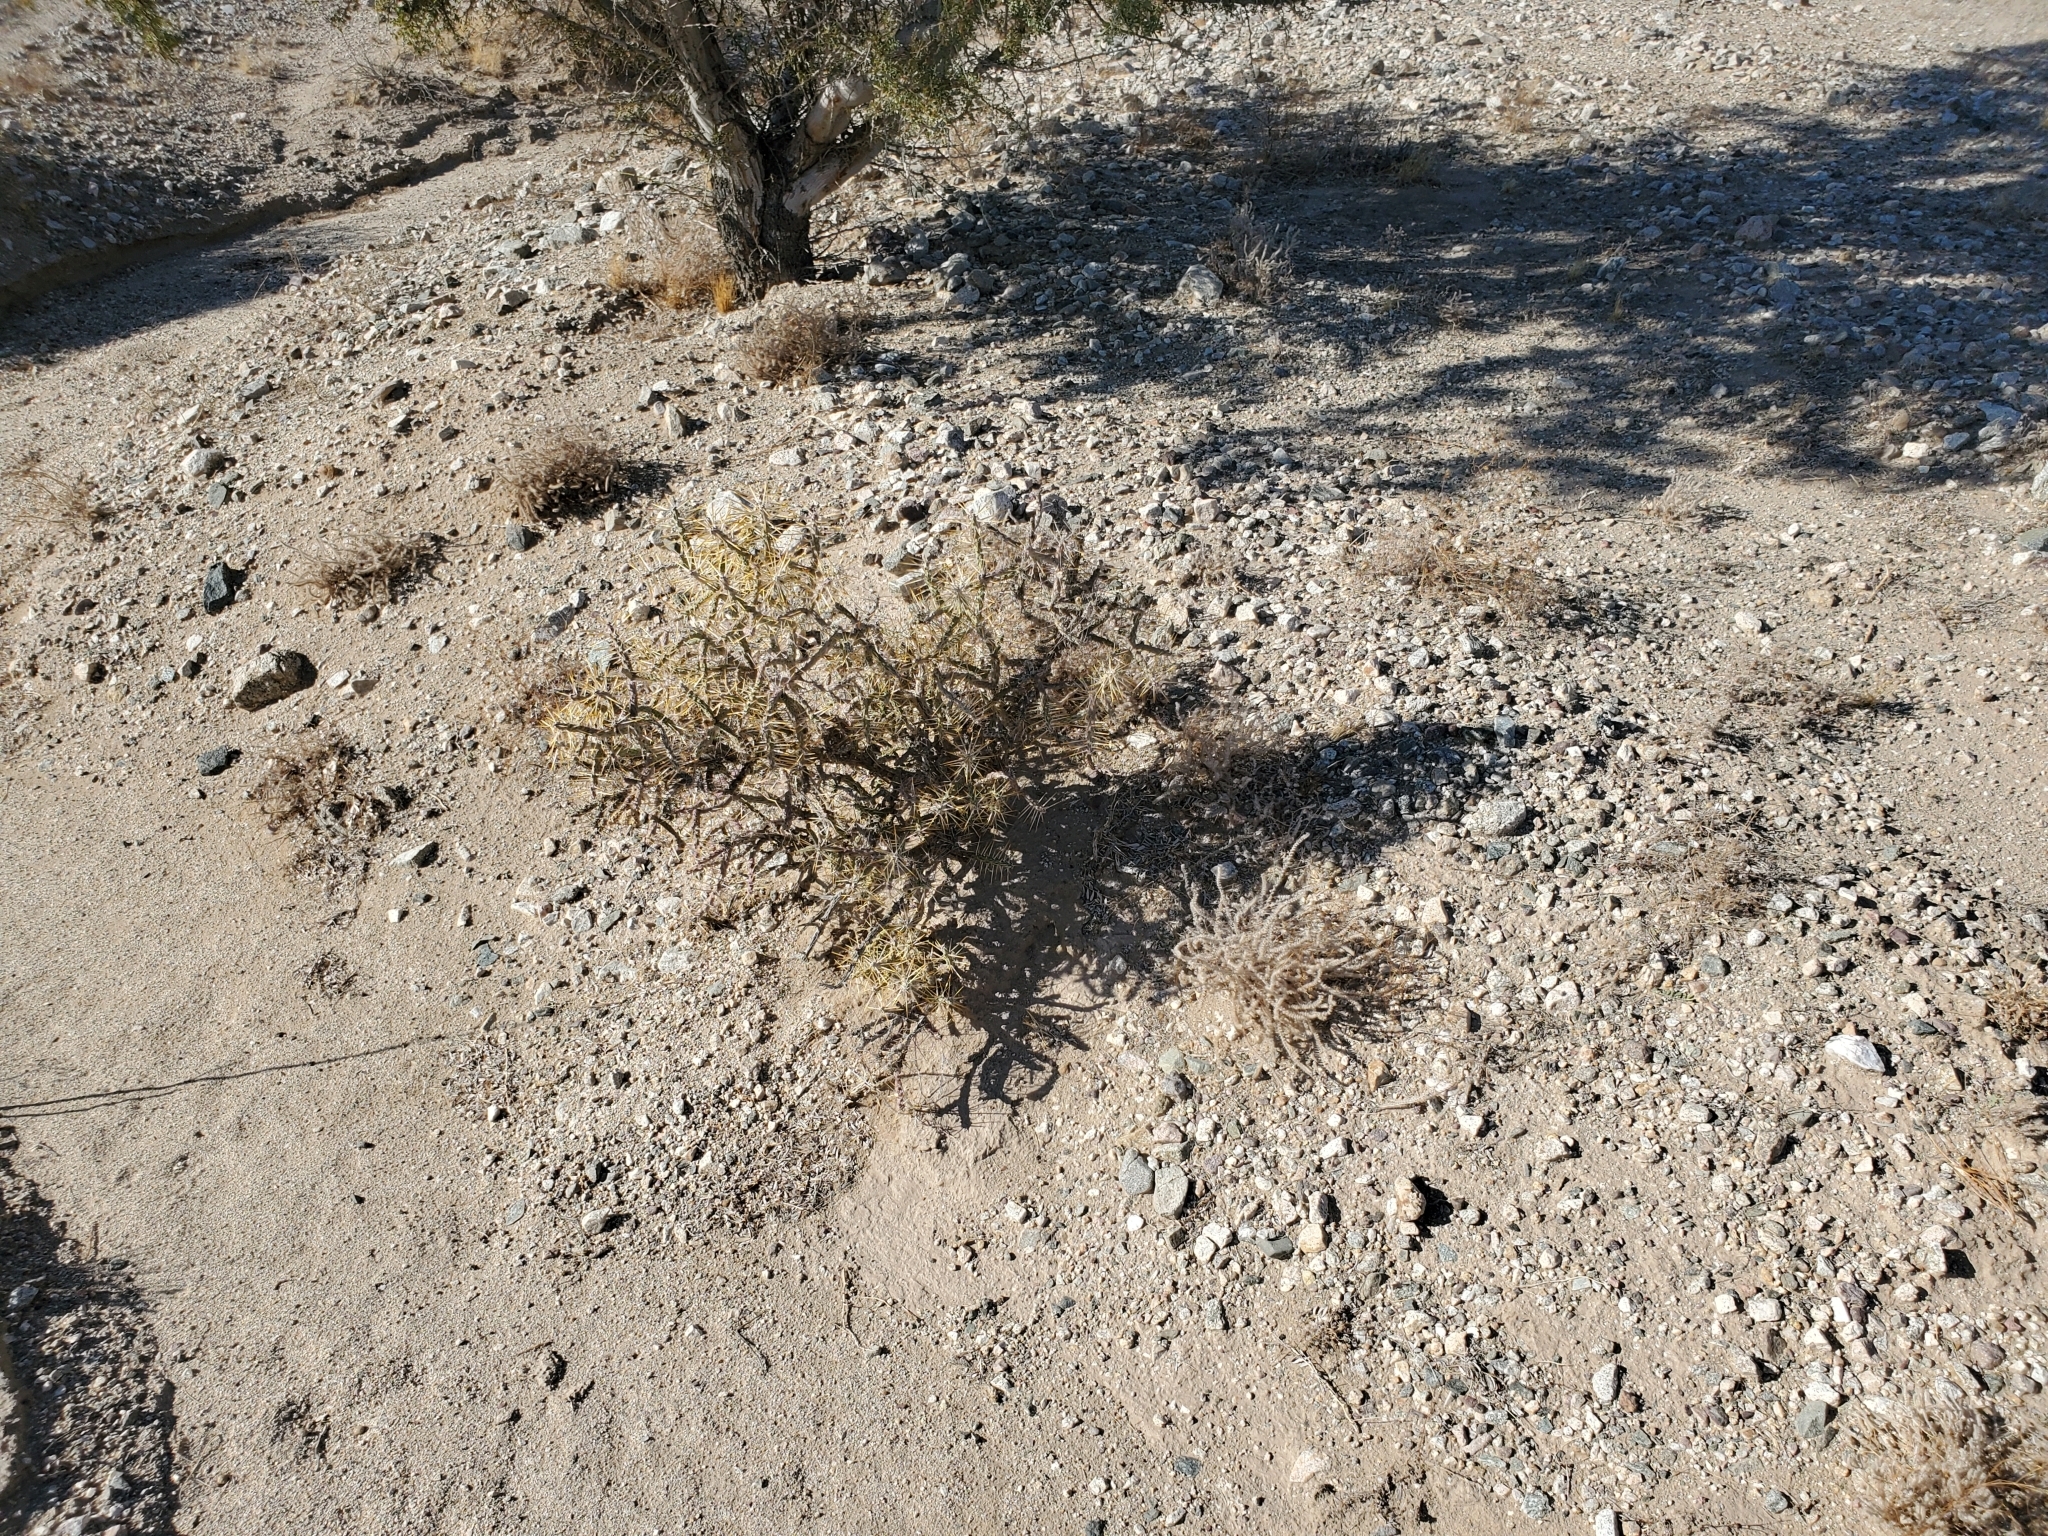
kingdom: Plantae
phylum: Tracheophyta
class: Magnoliopsida
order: Caryophyllales
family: Cactaceae
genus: Cylindropuntia
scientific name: Cylindropuntia ramosissima
